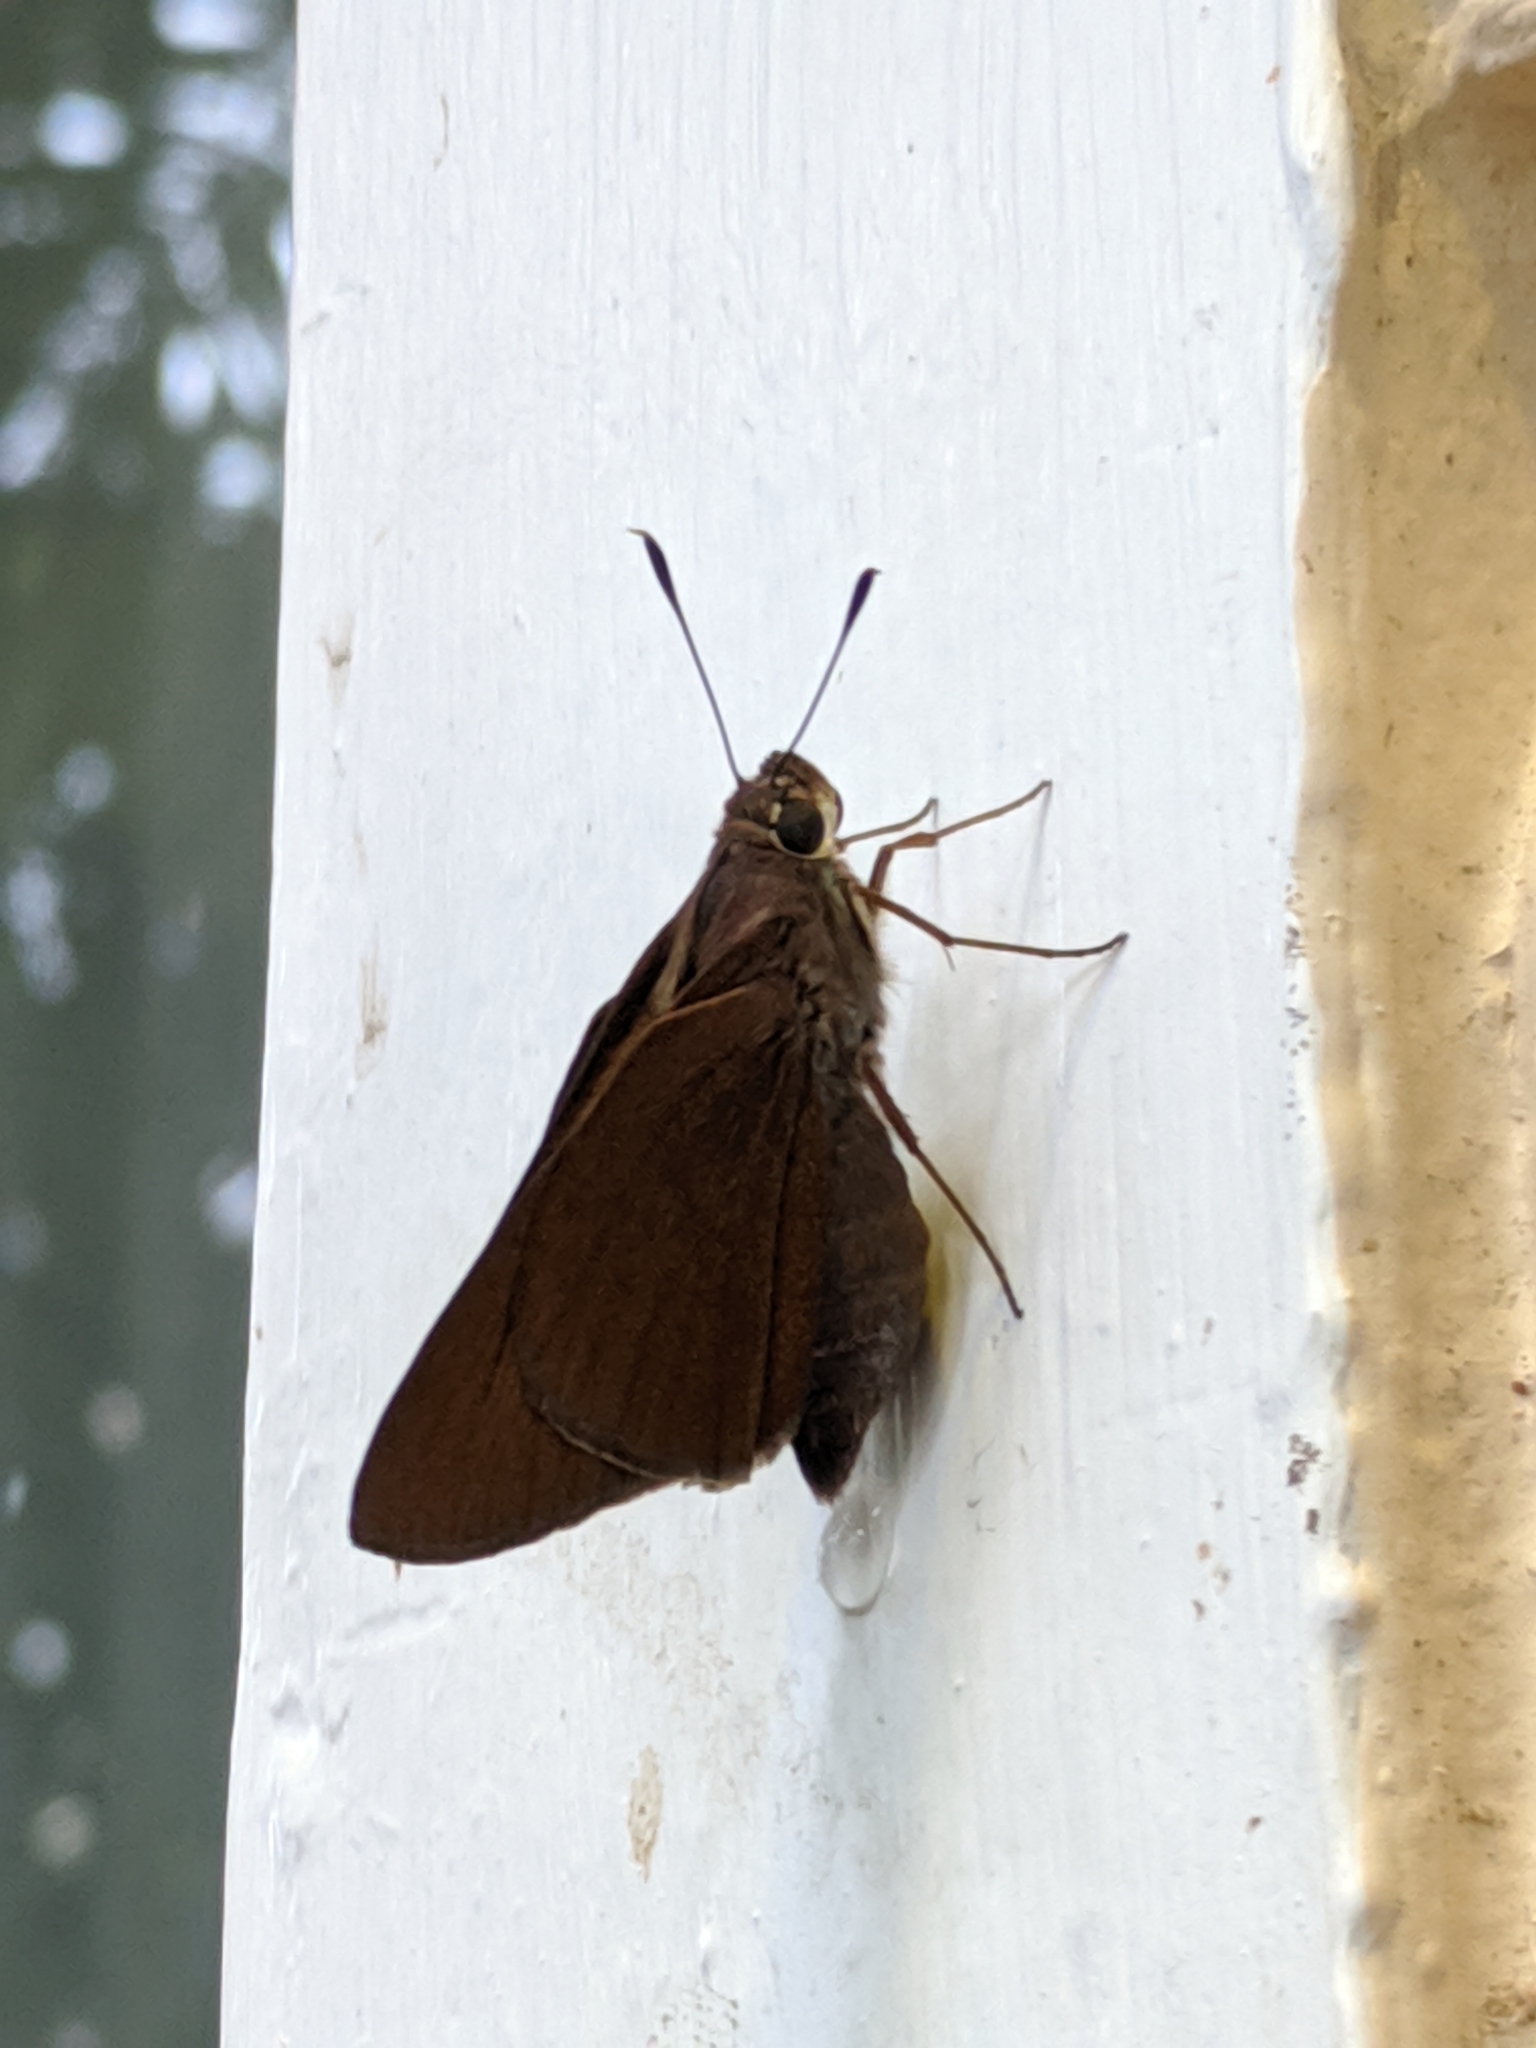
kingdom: Animalia
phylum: Arthropoda
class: Insecta
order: Lepidoptera
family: Hesperiidae
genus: Asbolis
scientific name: Asbolis capucinus
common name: Monk skipper
